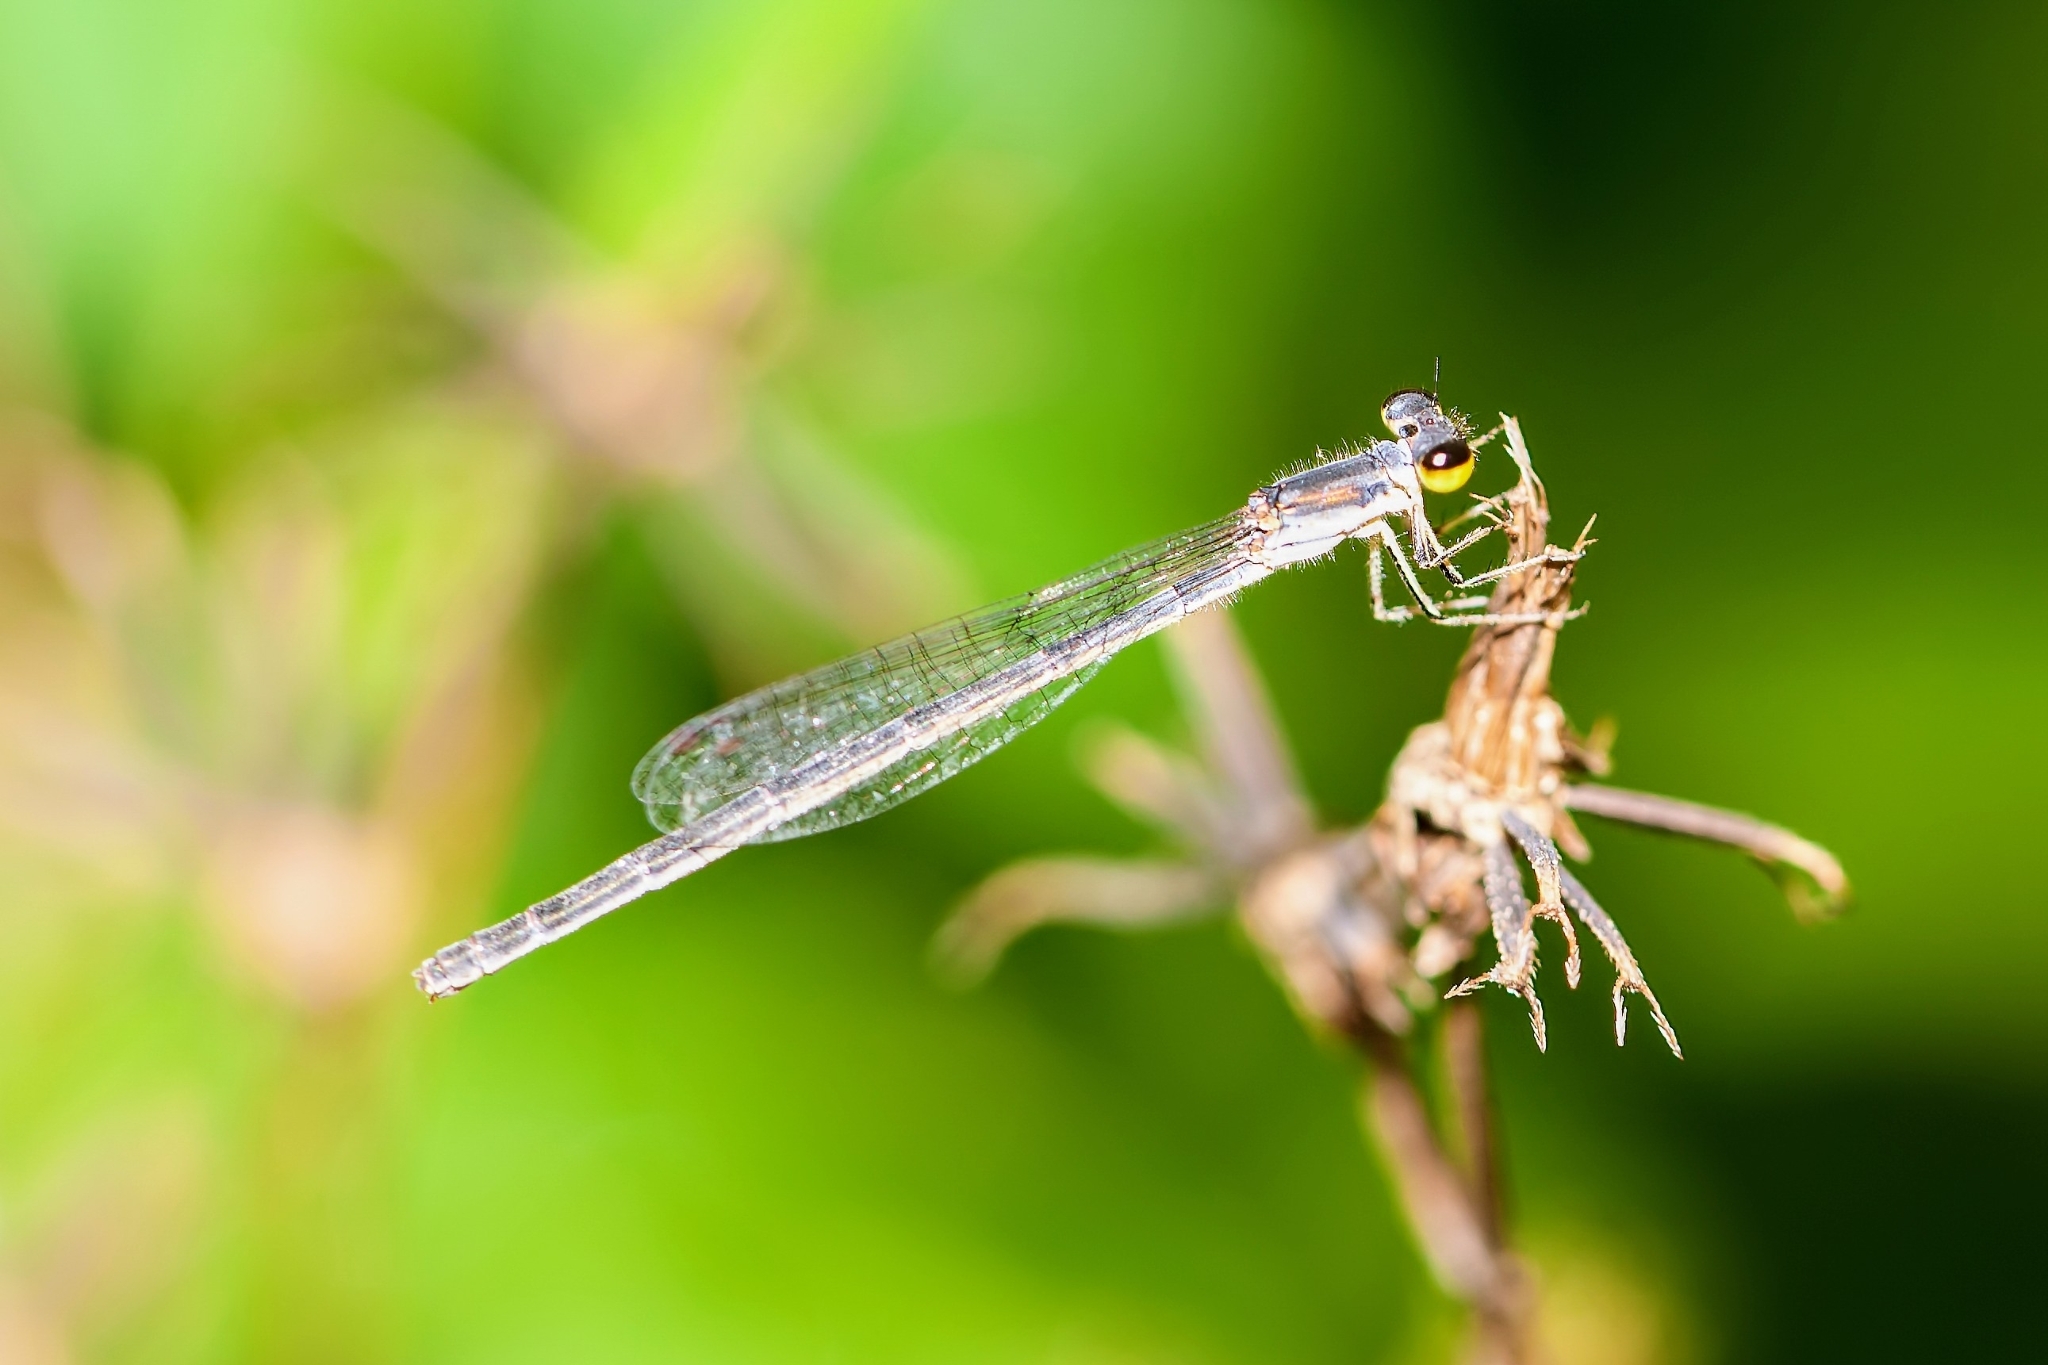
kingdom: Animalia
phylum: Arthropoda
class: Insecta
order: Odonata
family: Coenagrionidae
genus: Ischnura
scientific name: Ischnura posita
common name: Fragile forktail
